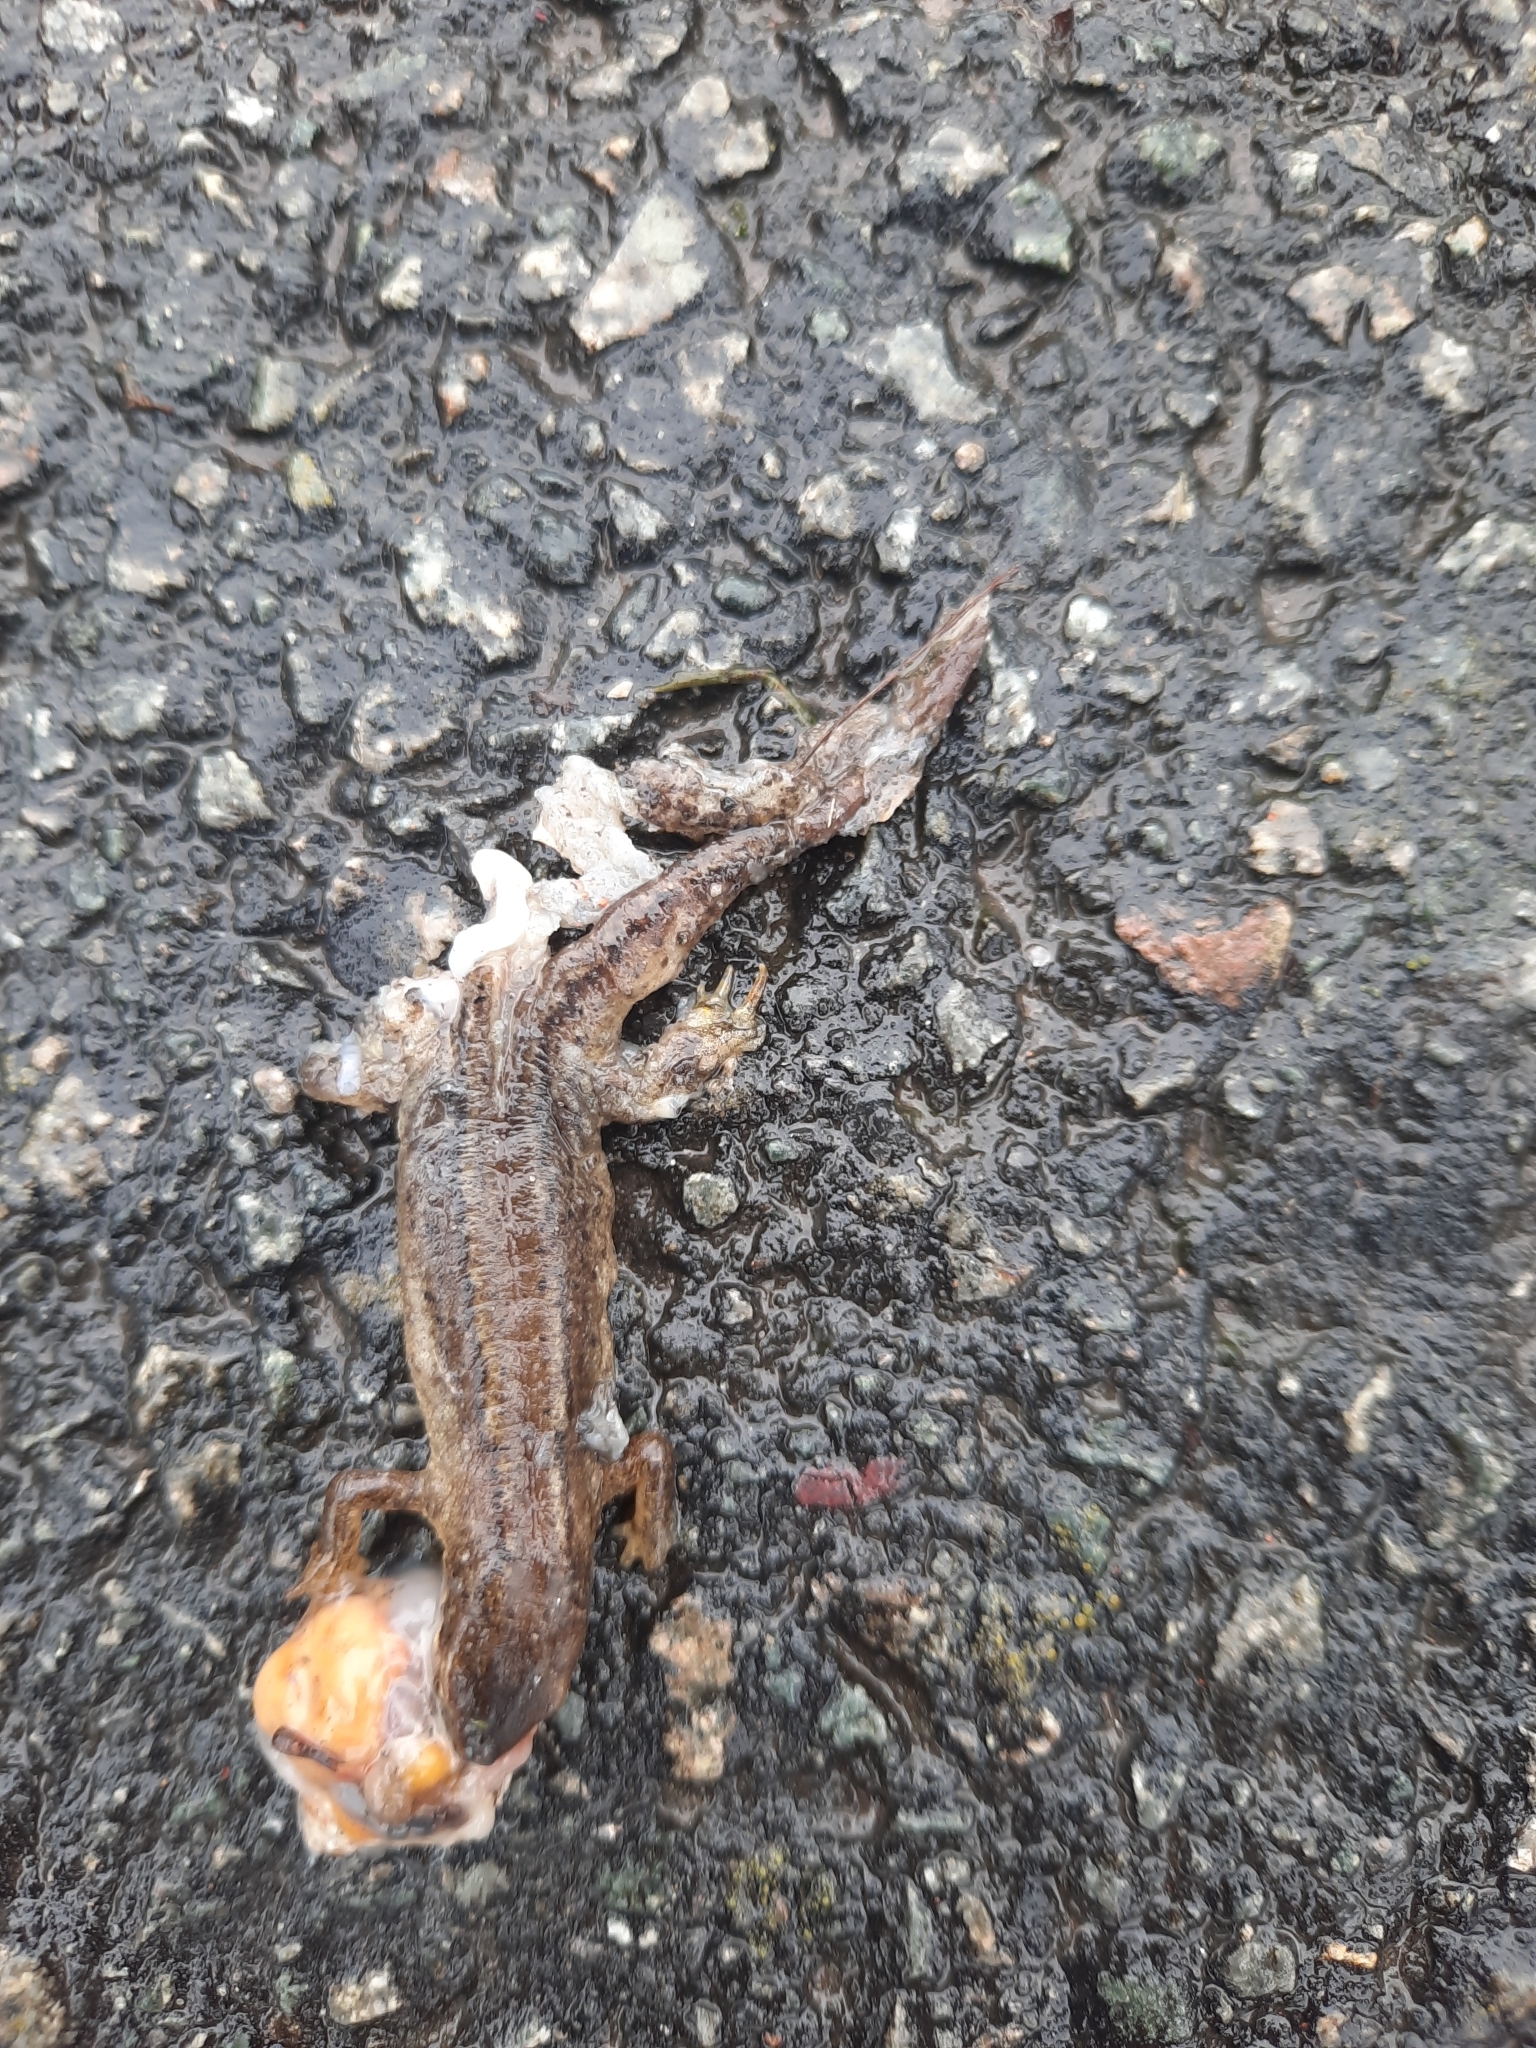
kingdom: Animalia
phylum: Chordata
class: Amphibia
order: Caudata
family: Salamandridae
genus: Lissotriton
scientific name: Lissotriton vulgaris
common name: Smooth newt
